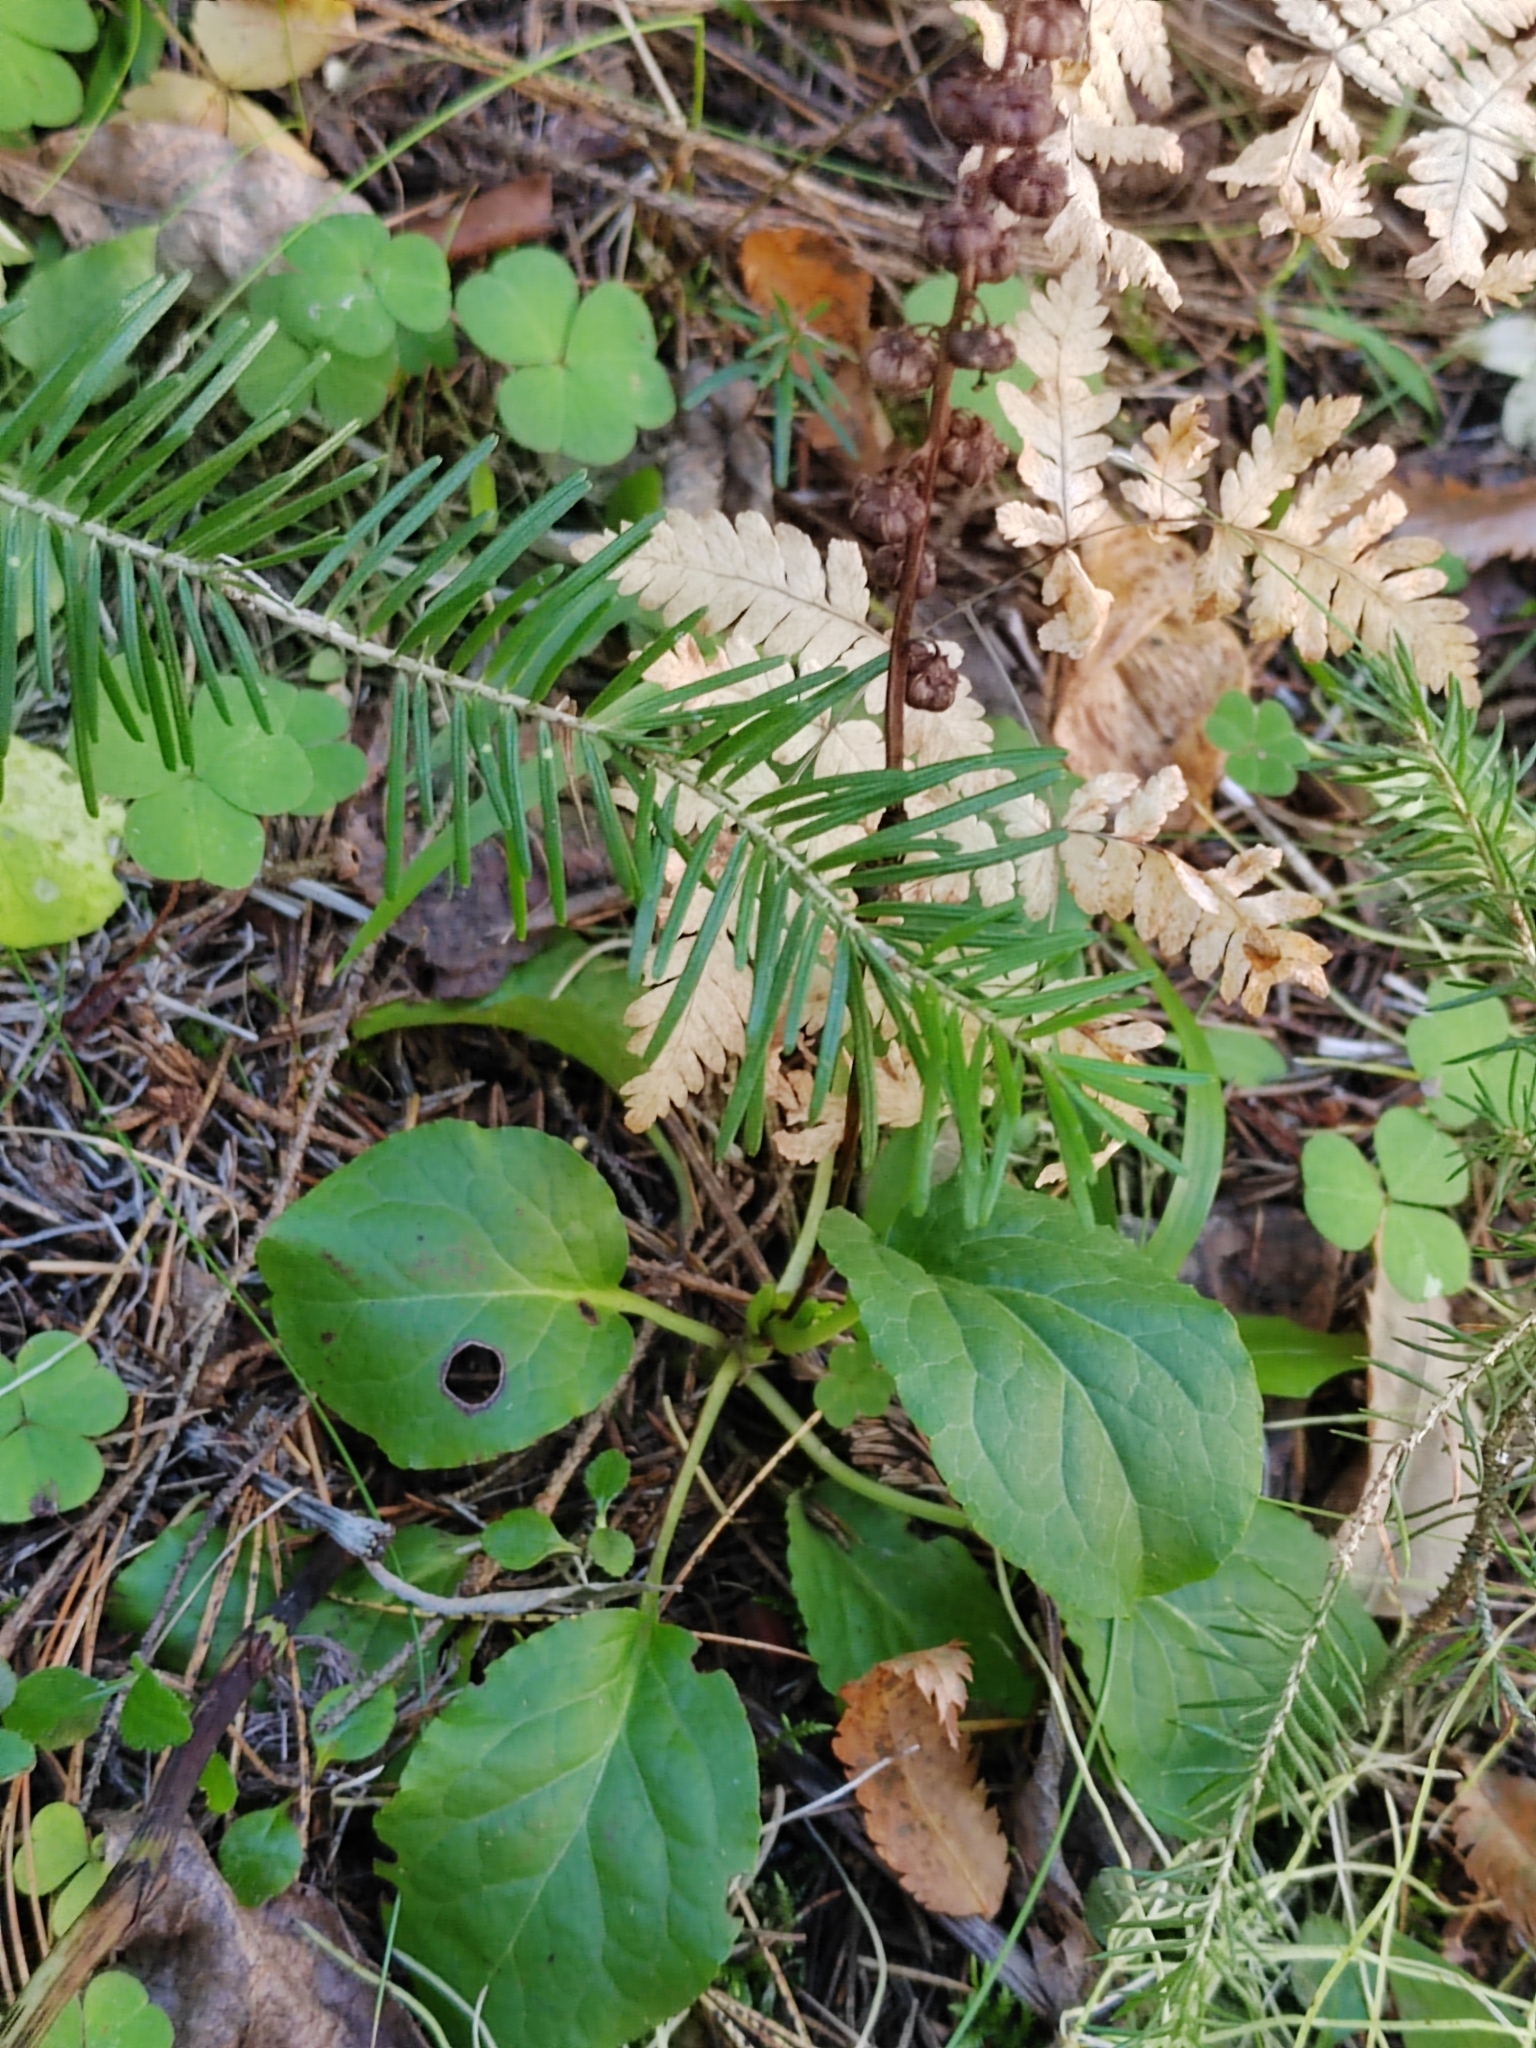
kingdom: Plantae
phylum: Tracheophyta
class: Magnoliopsida
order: Ericales
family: Ericaceae
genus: Pyrola
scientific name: Pyrola minor
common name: Common wintergreen
